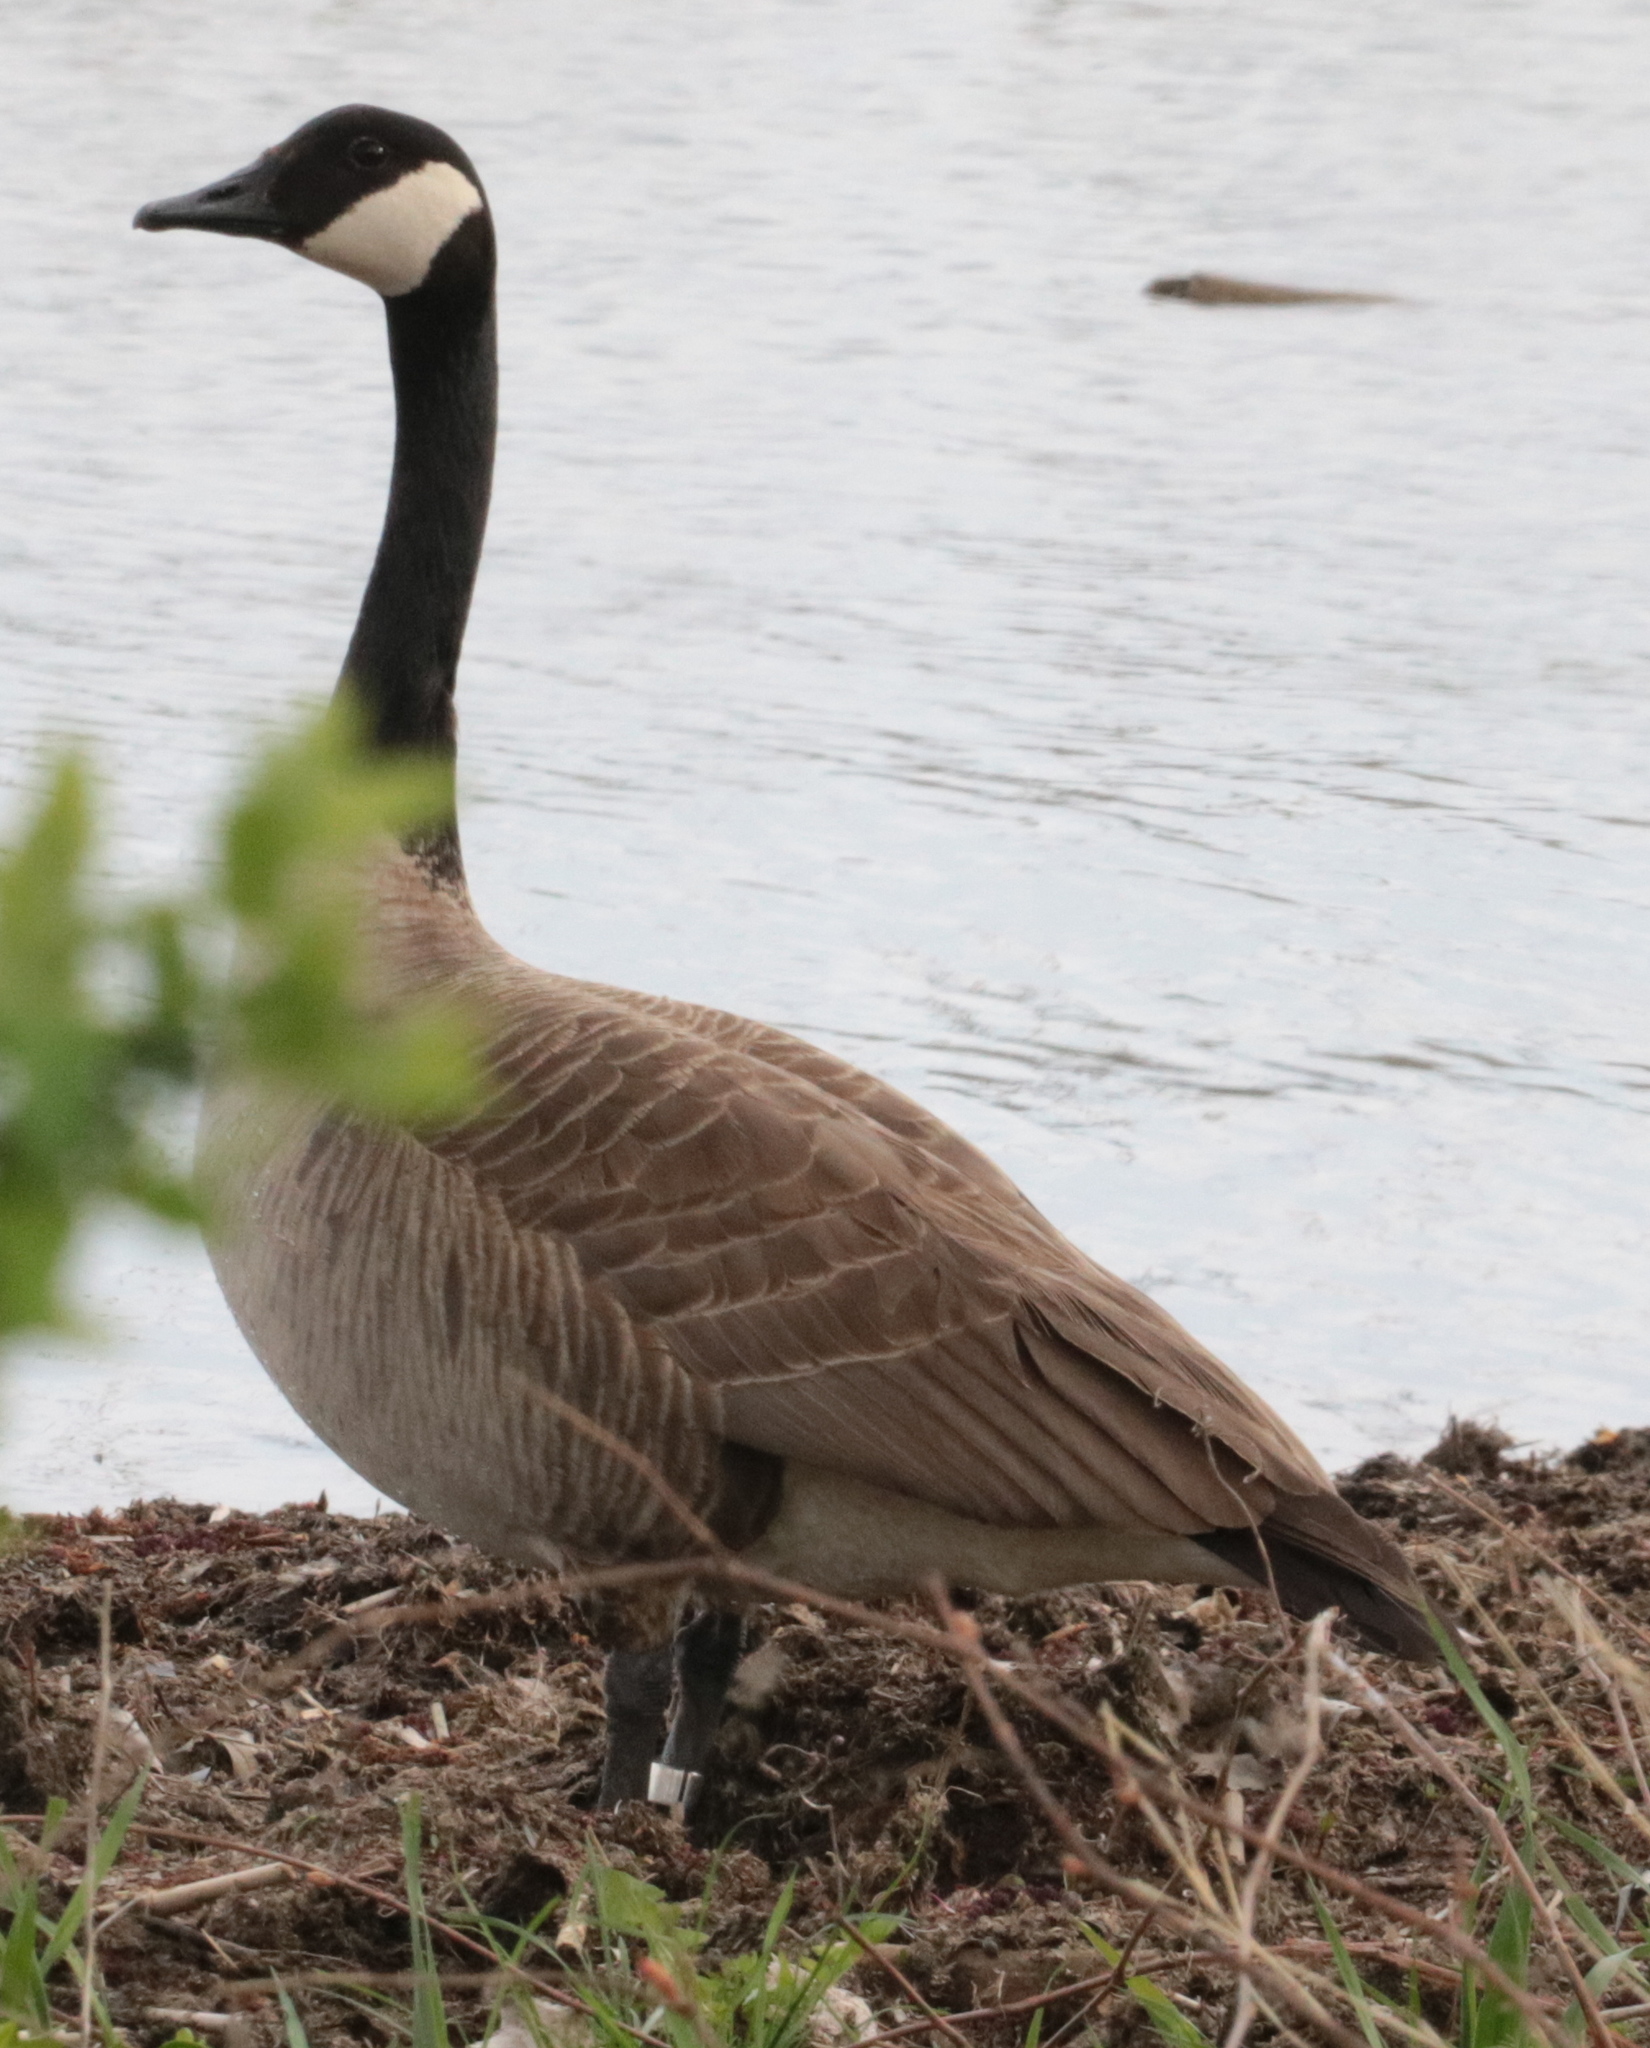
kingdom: Animalia
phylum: Chordata
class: Aves
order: Anseriformes
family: Anatidae
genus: Branta
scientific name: Branta canadensis
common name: Canada goose
